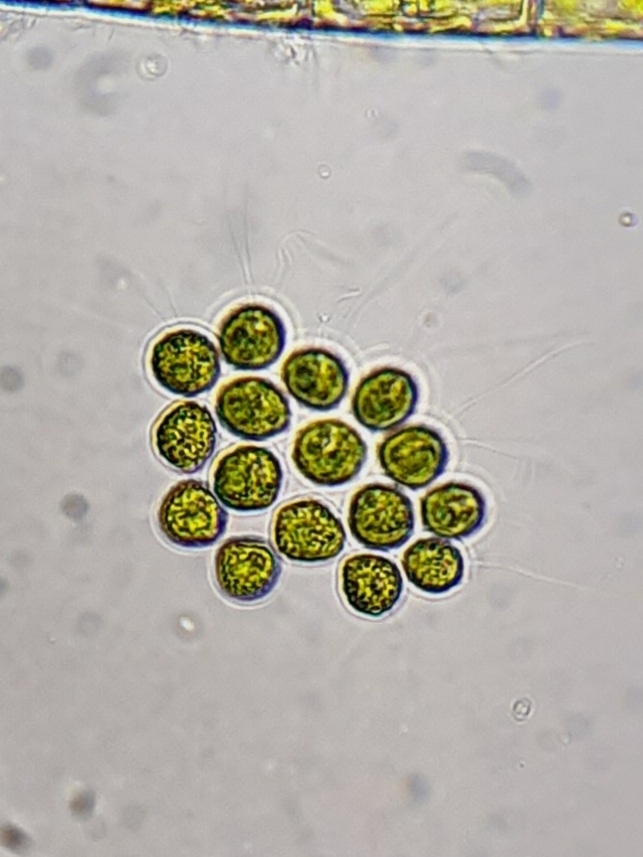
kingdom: Plantae
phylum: Chlorophyta
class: Chlorophyceae
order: Volvocales
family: Goniaceae
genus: Gonium
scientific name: Gonium pectorale
